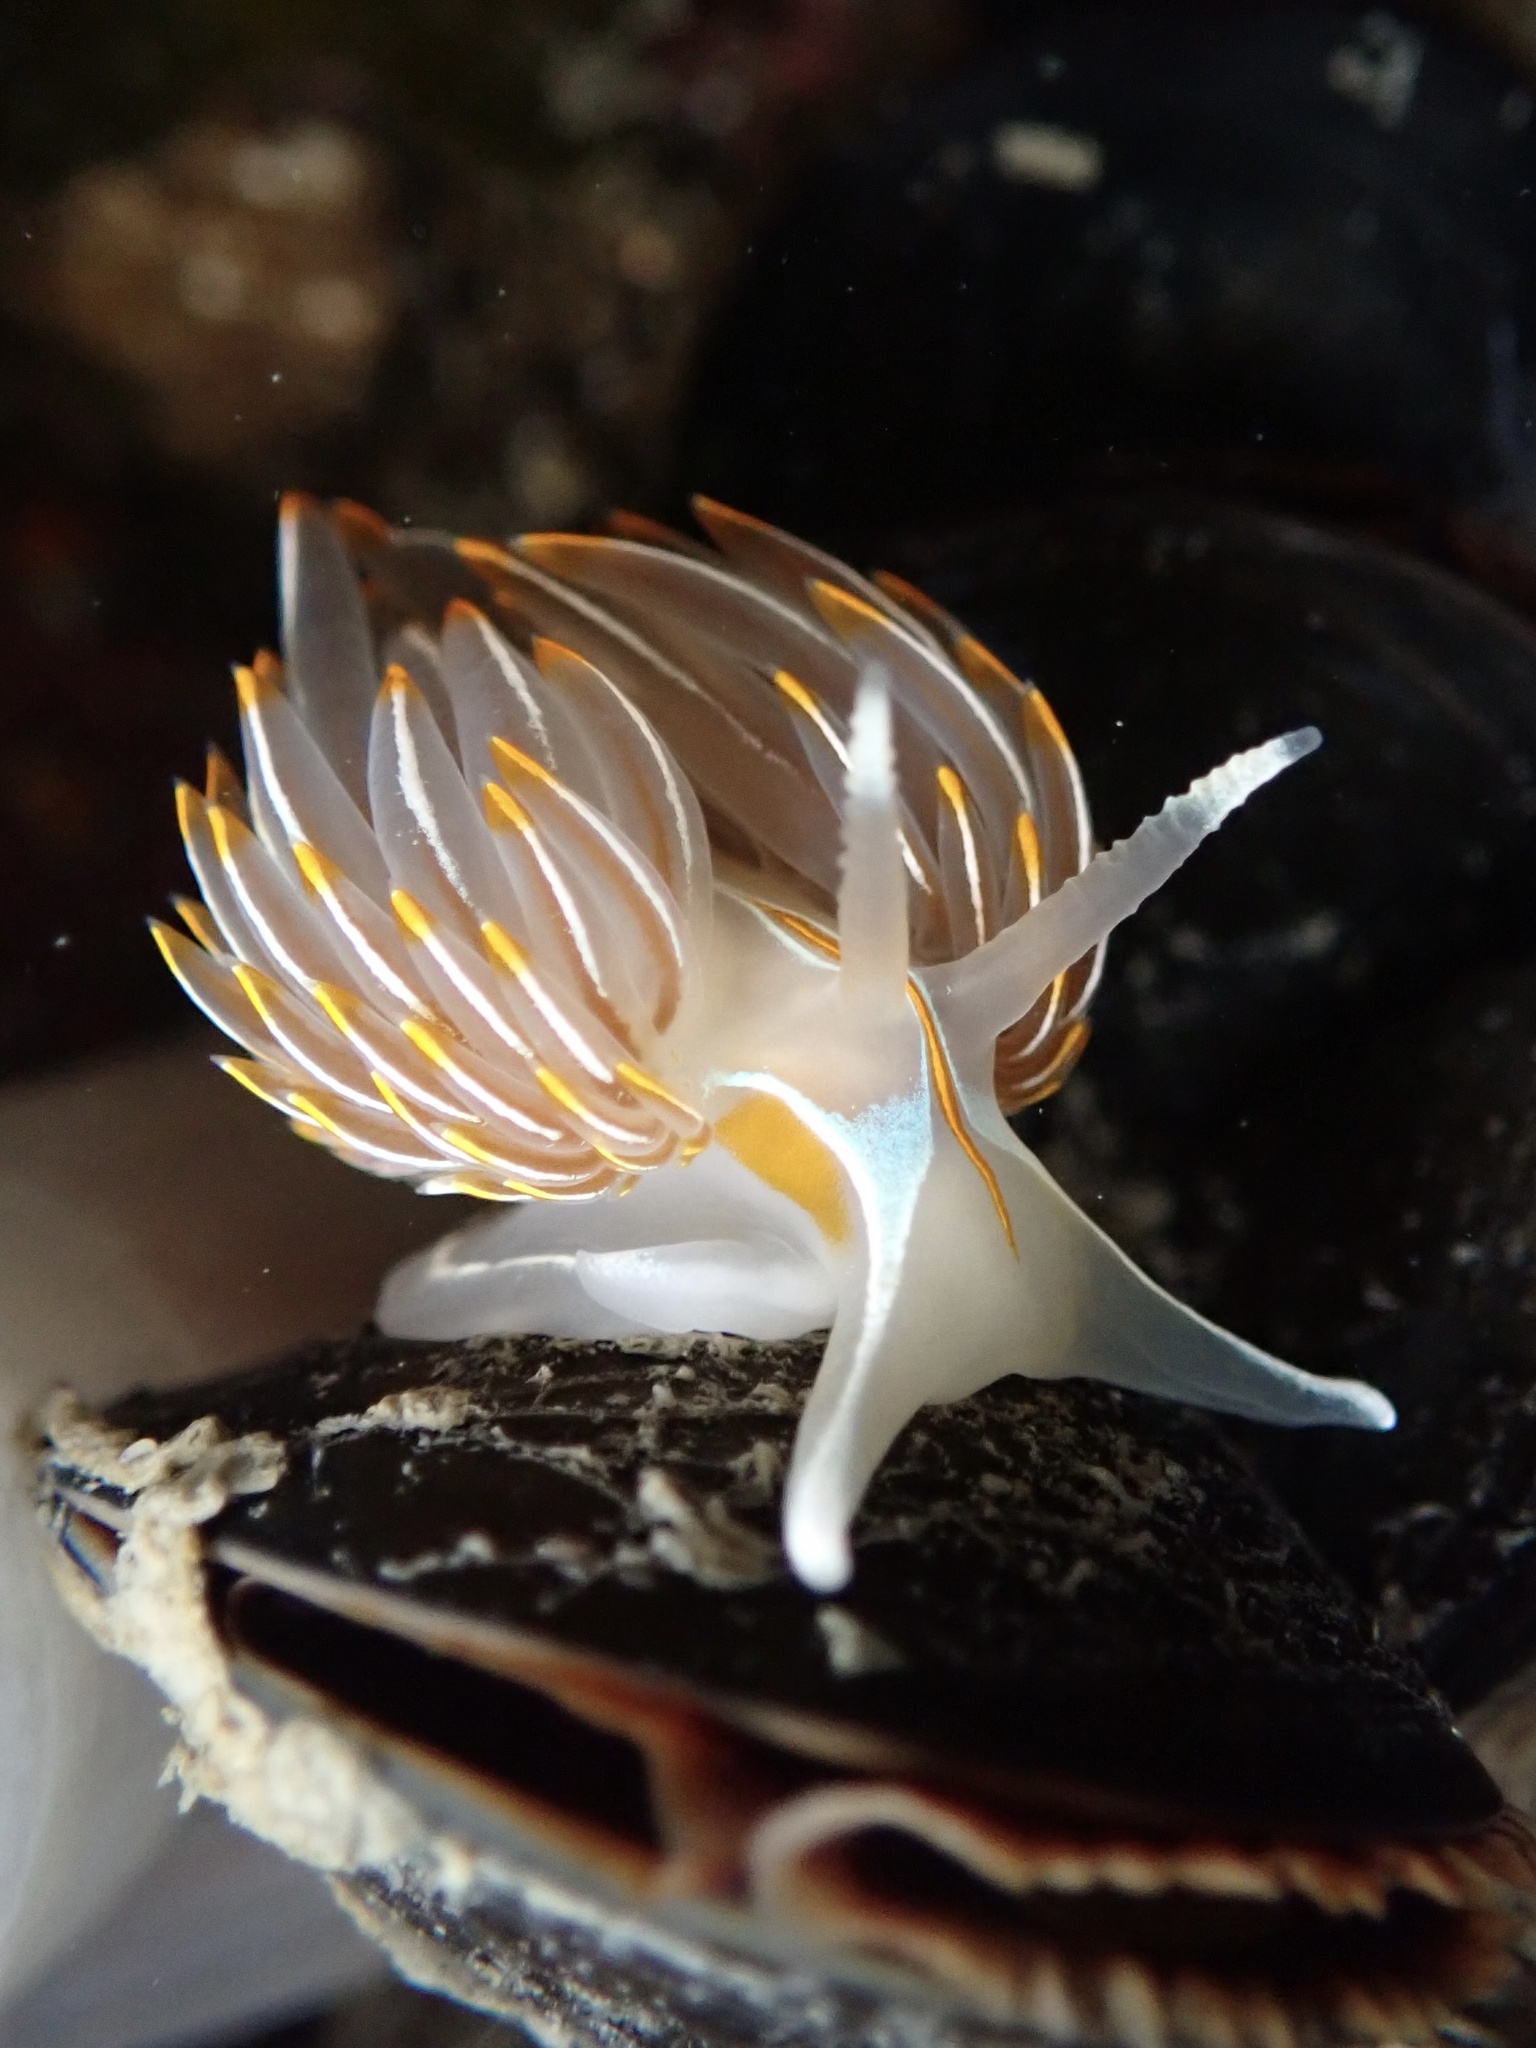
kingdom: Animalia
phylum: Mollusca
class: Gastropoda
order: Nudibranchia
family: Myrrhinidae
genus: Hermissenda
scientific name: Hermissenda crassicornis
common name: Hermissenda
